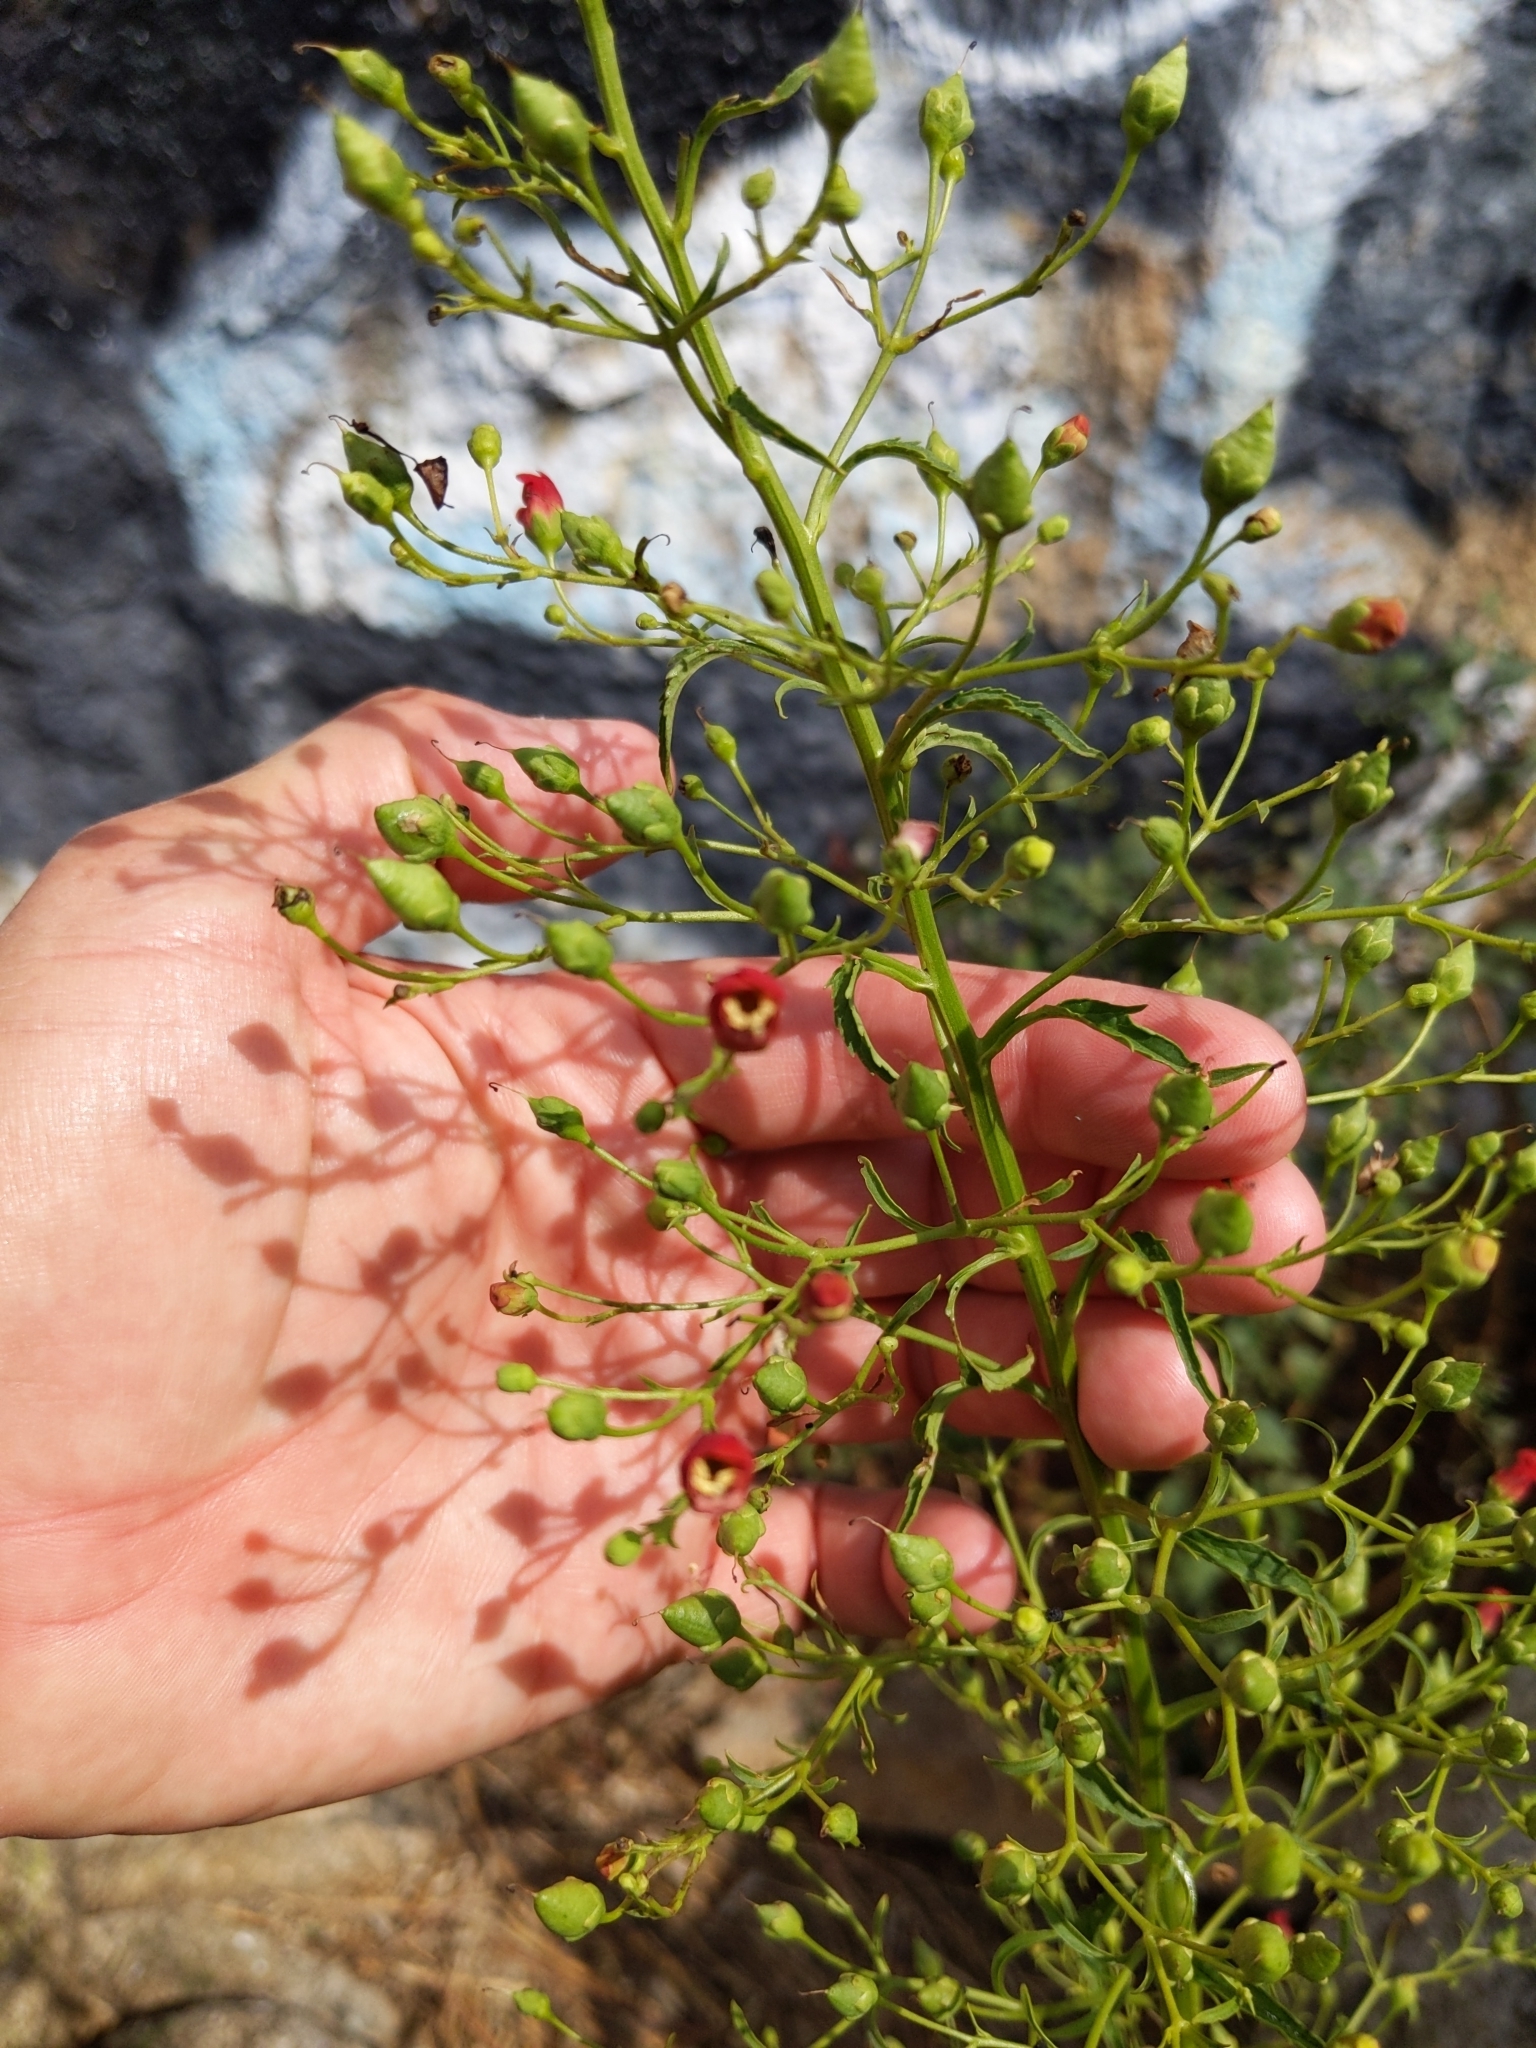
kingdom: Plantae
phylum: Tracheophyta
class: Magnoliopsida
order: Lamiales
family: Scrophulariaceae
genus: Scrophularia
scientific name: Scrophularia californica
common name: California figwort
